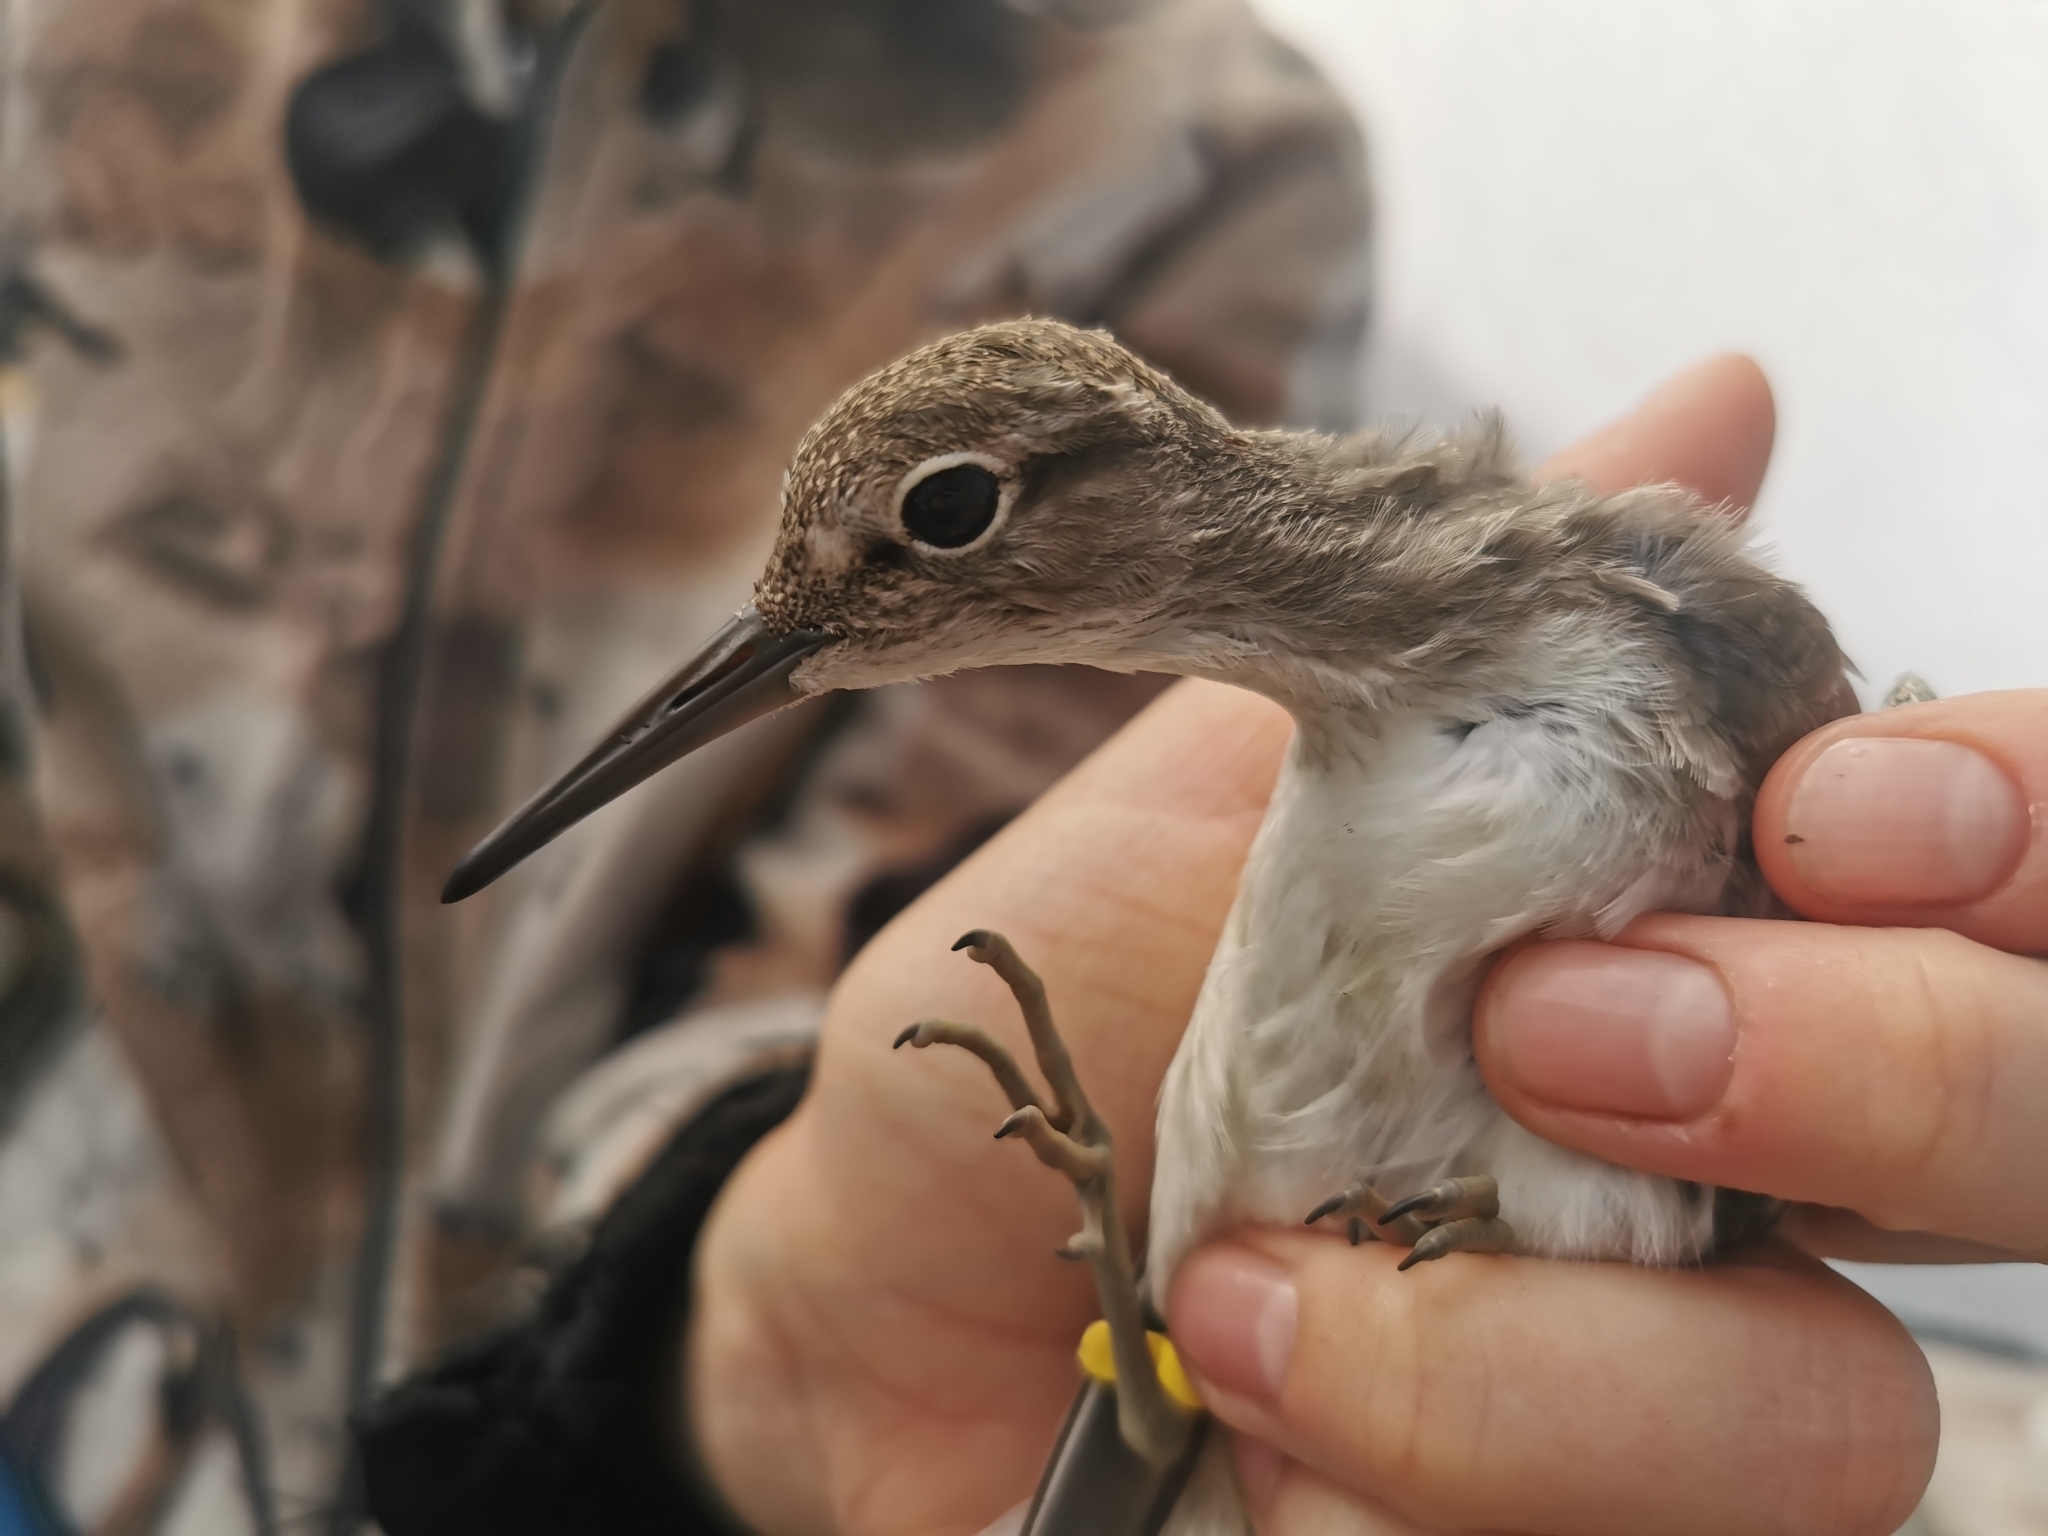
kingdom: Animalia
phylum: Chordata
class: Aves
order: Charadriiformes
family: Scolopacidae
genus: Actitis
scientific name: Actitis hypoleucos
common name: Common sandpiper
